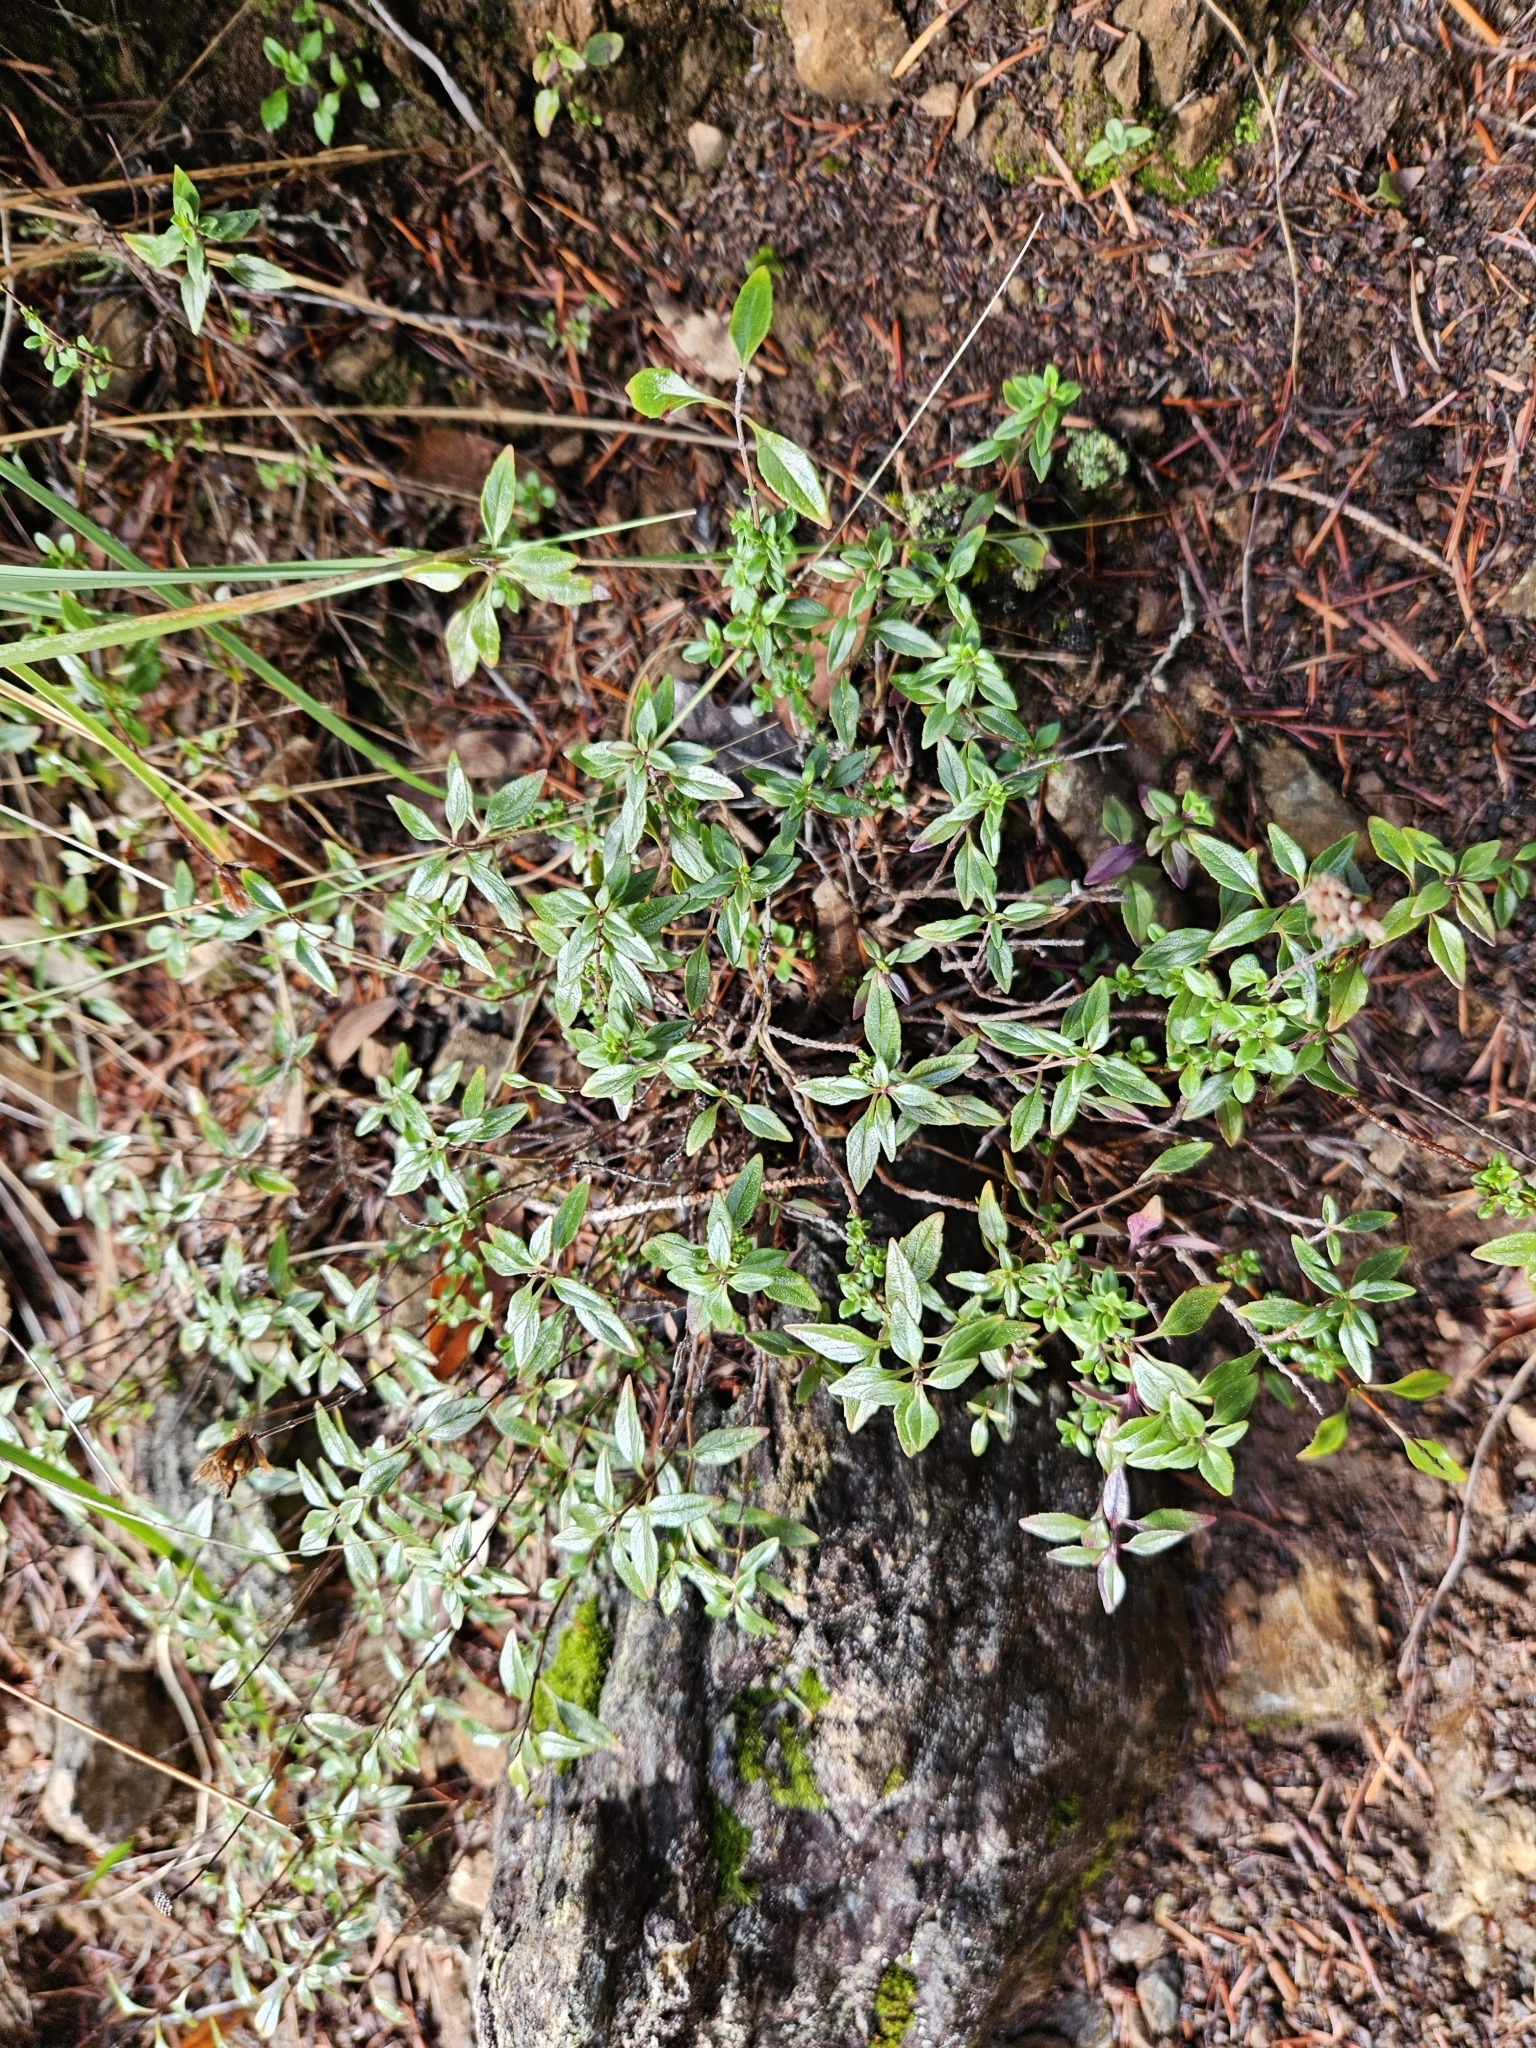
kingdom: Plantae
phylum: Tracheophyta
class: Magnoliopsida
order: Lamiales
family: Lamiaceae
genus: Monardella
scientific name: Monardella purpurea
